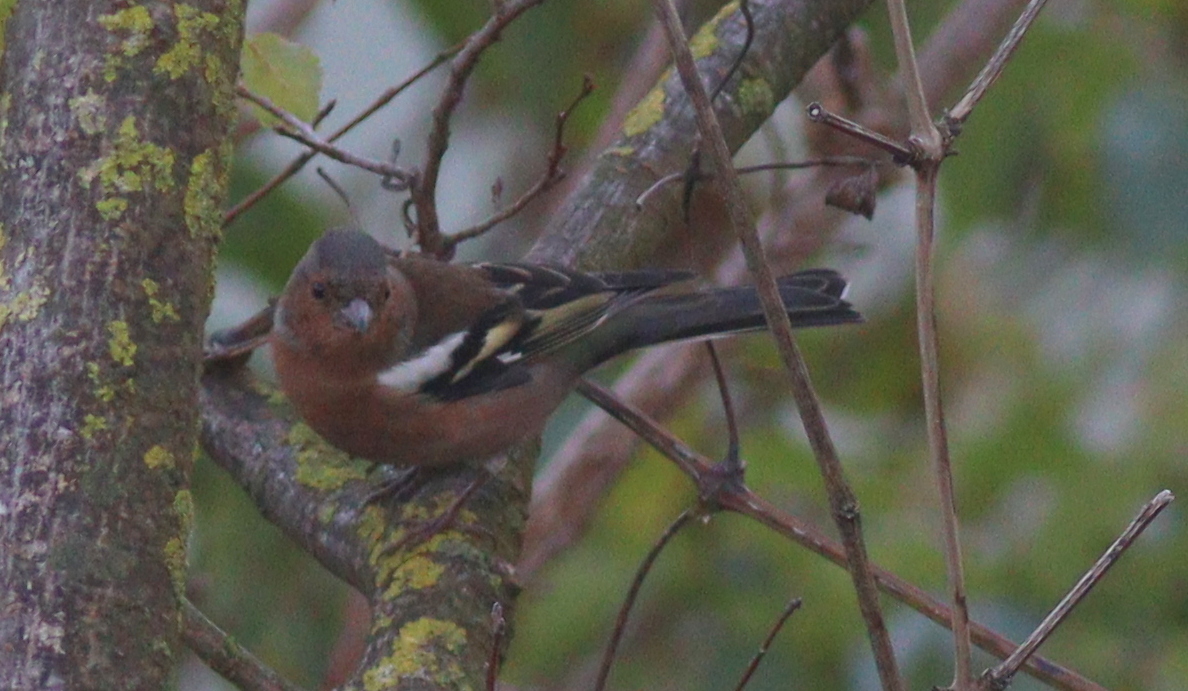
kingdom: Animalia
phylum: Chordata
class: Aves
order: Passeriformes
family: Fringillidae
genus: Fringilla
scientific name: Fringilla coelebs
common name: Common chaffinch
